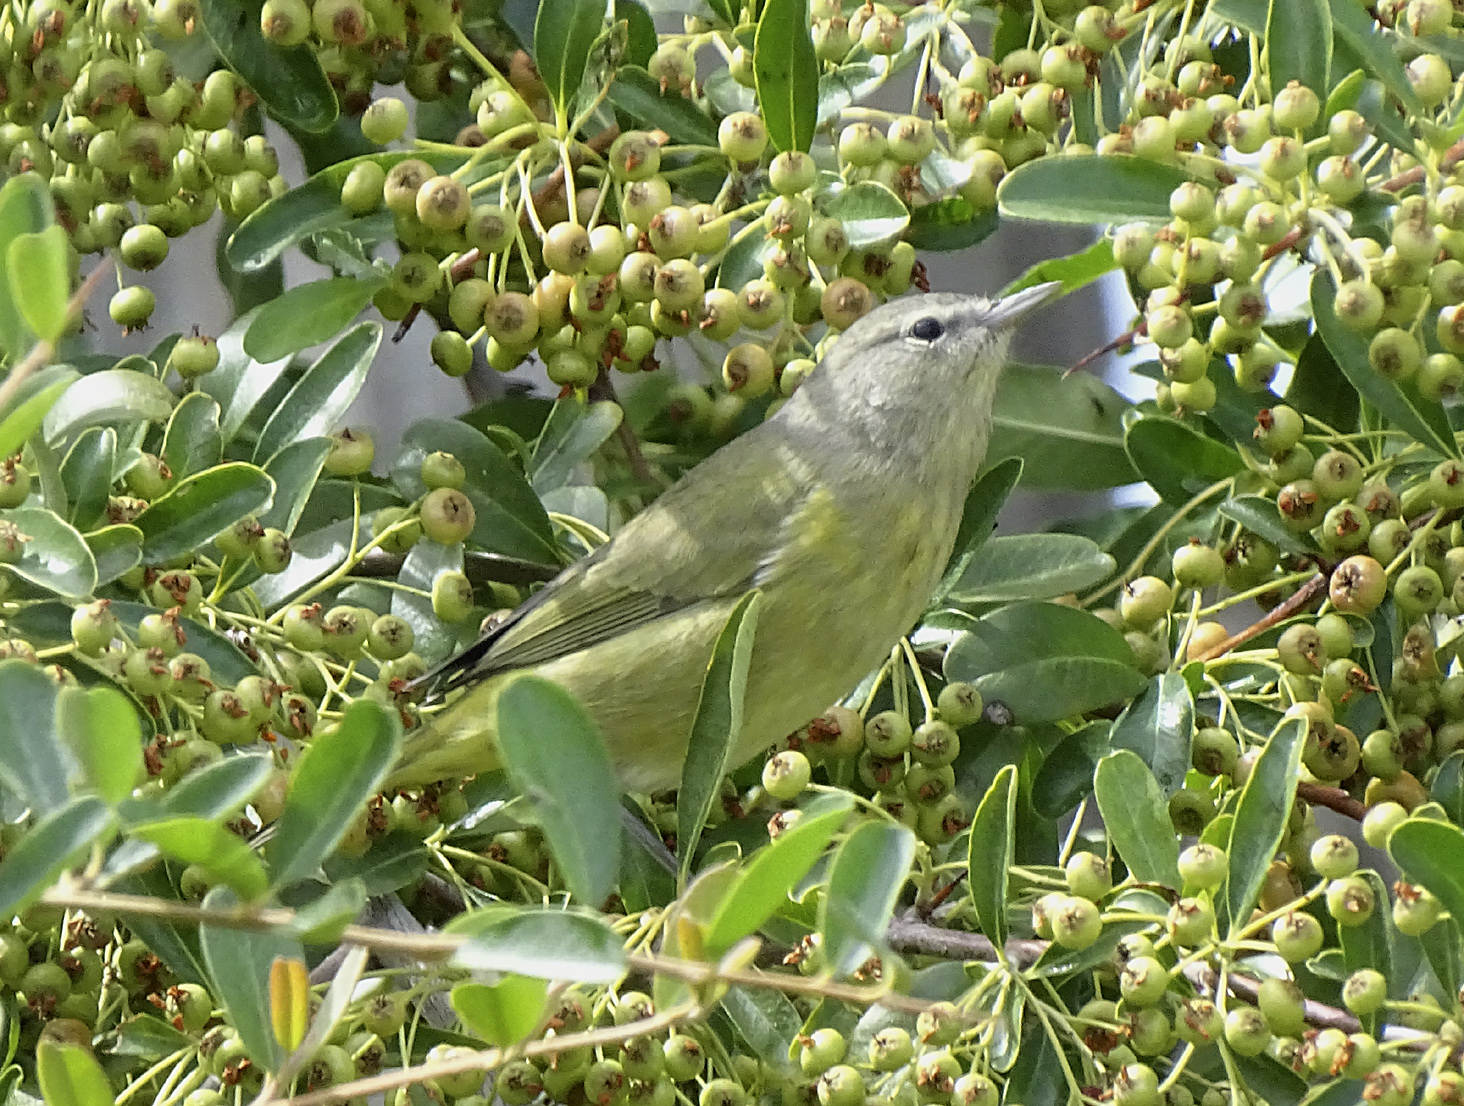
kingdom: Animalia
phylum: Chordata
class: Aves
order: Passeriformes
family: Parulidae
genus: Leiothlypis
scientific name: Leiothlypis celata
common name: Orange-crowned warbler
